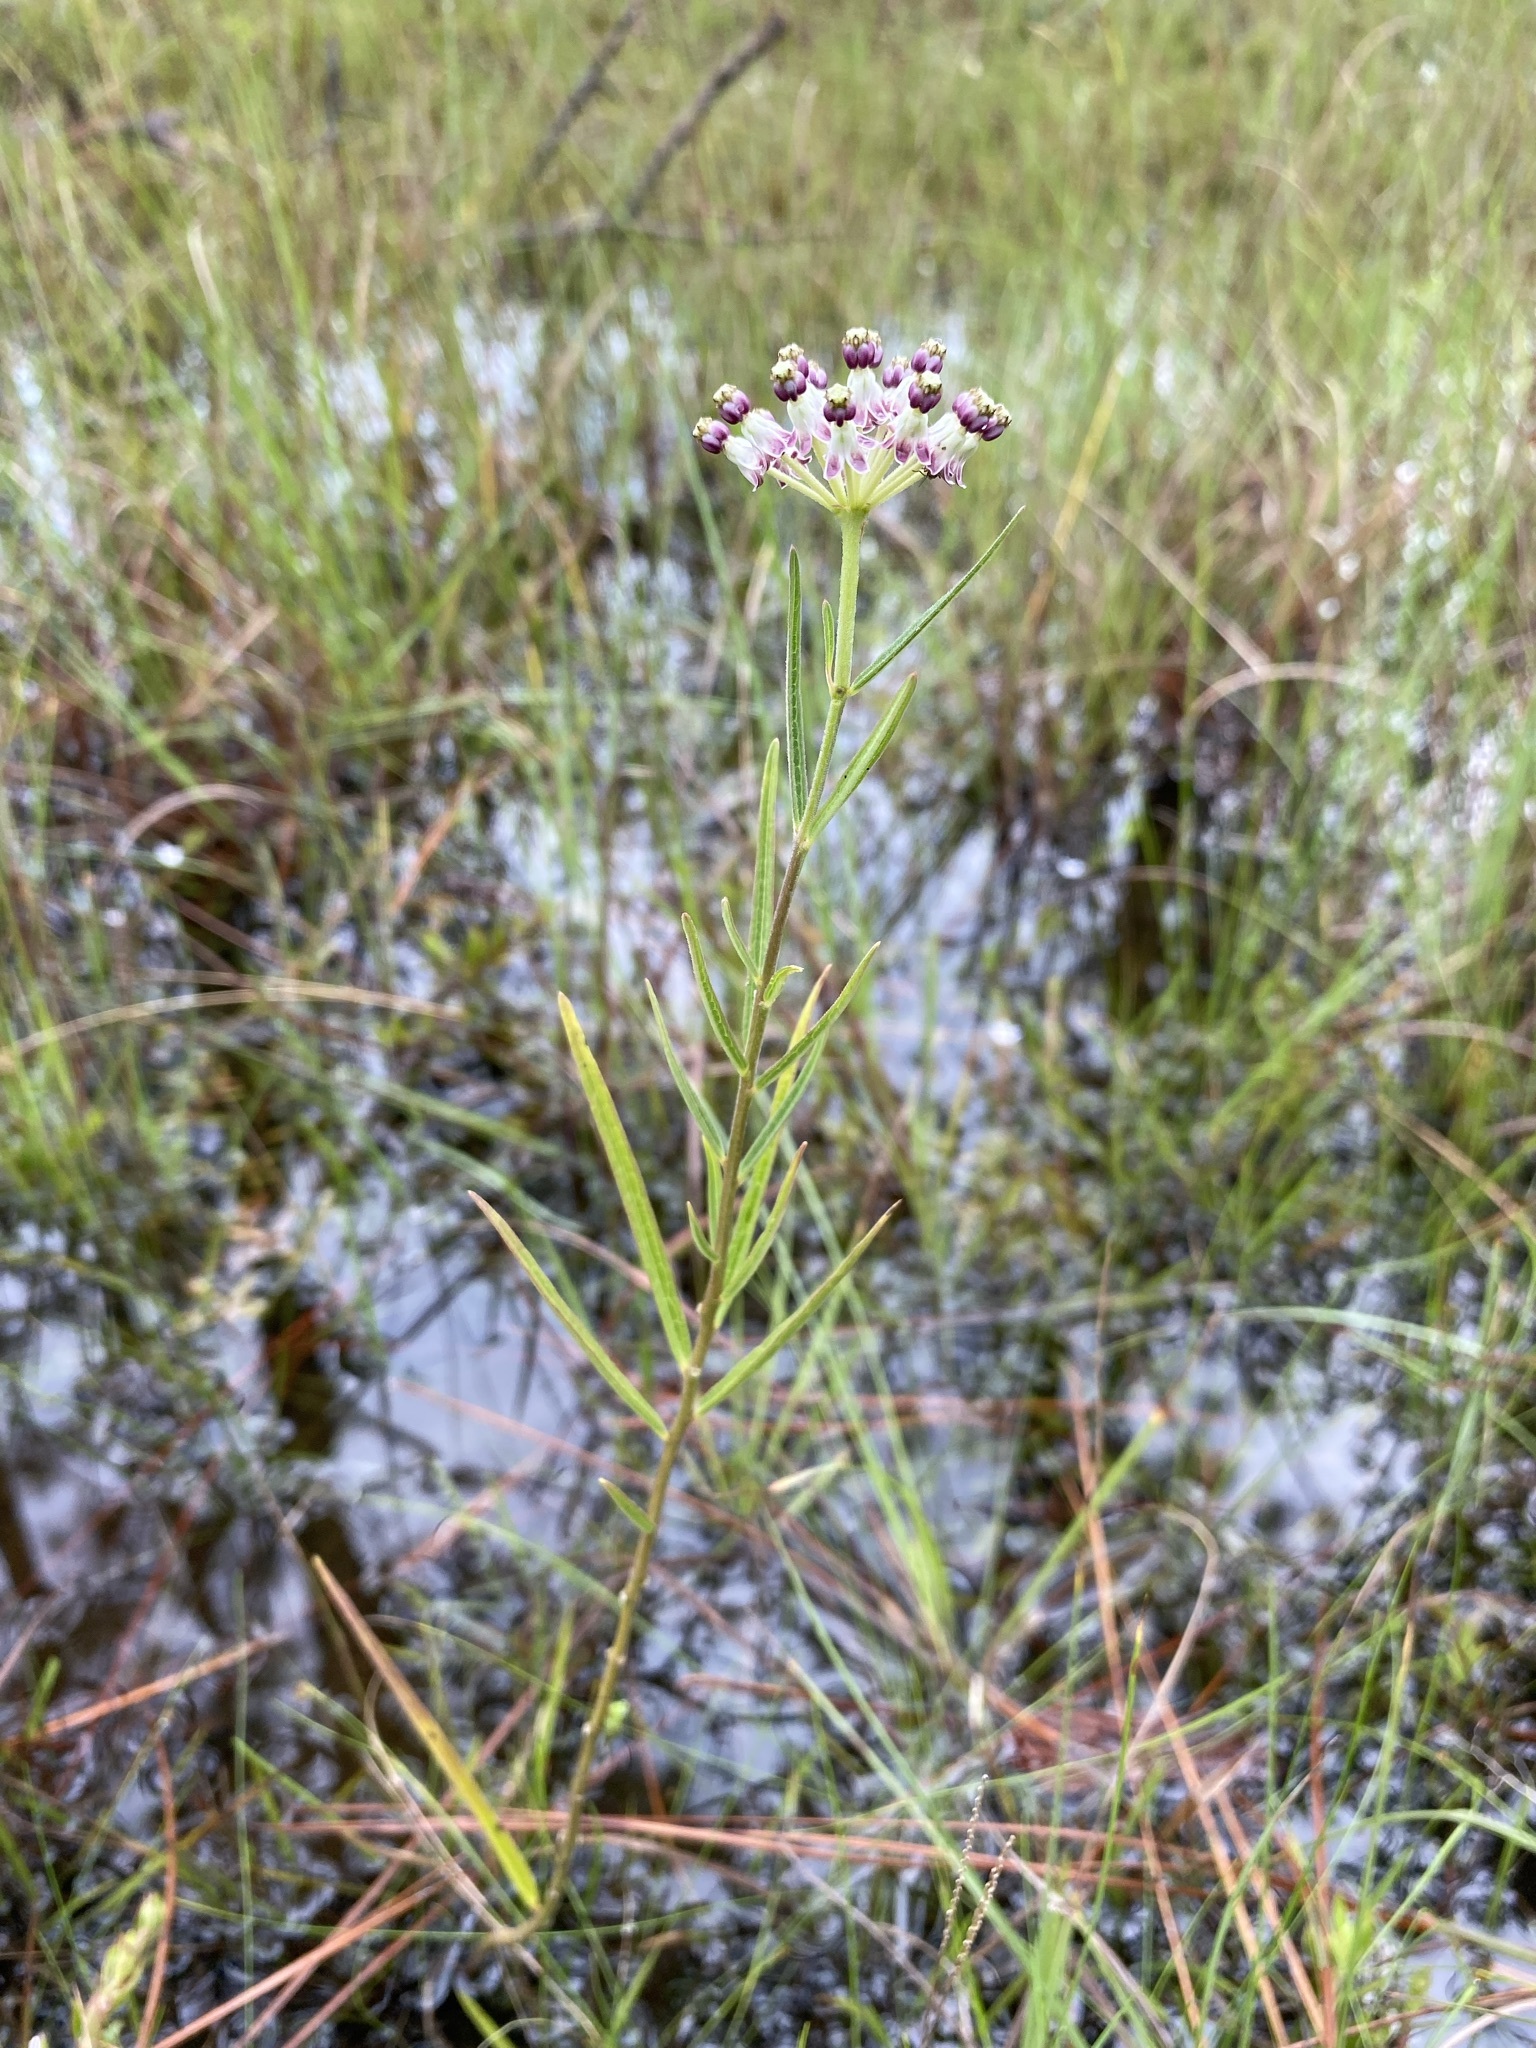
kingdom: Plantae
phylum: Tracheophyta
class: Magnoliopsida
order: Gentianales
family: Apocynaceae
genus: Asclepias
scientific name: Asclepias longifolia
